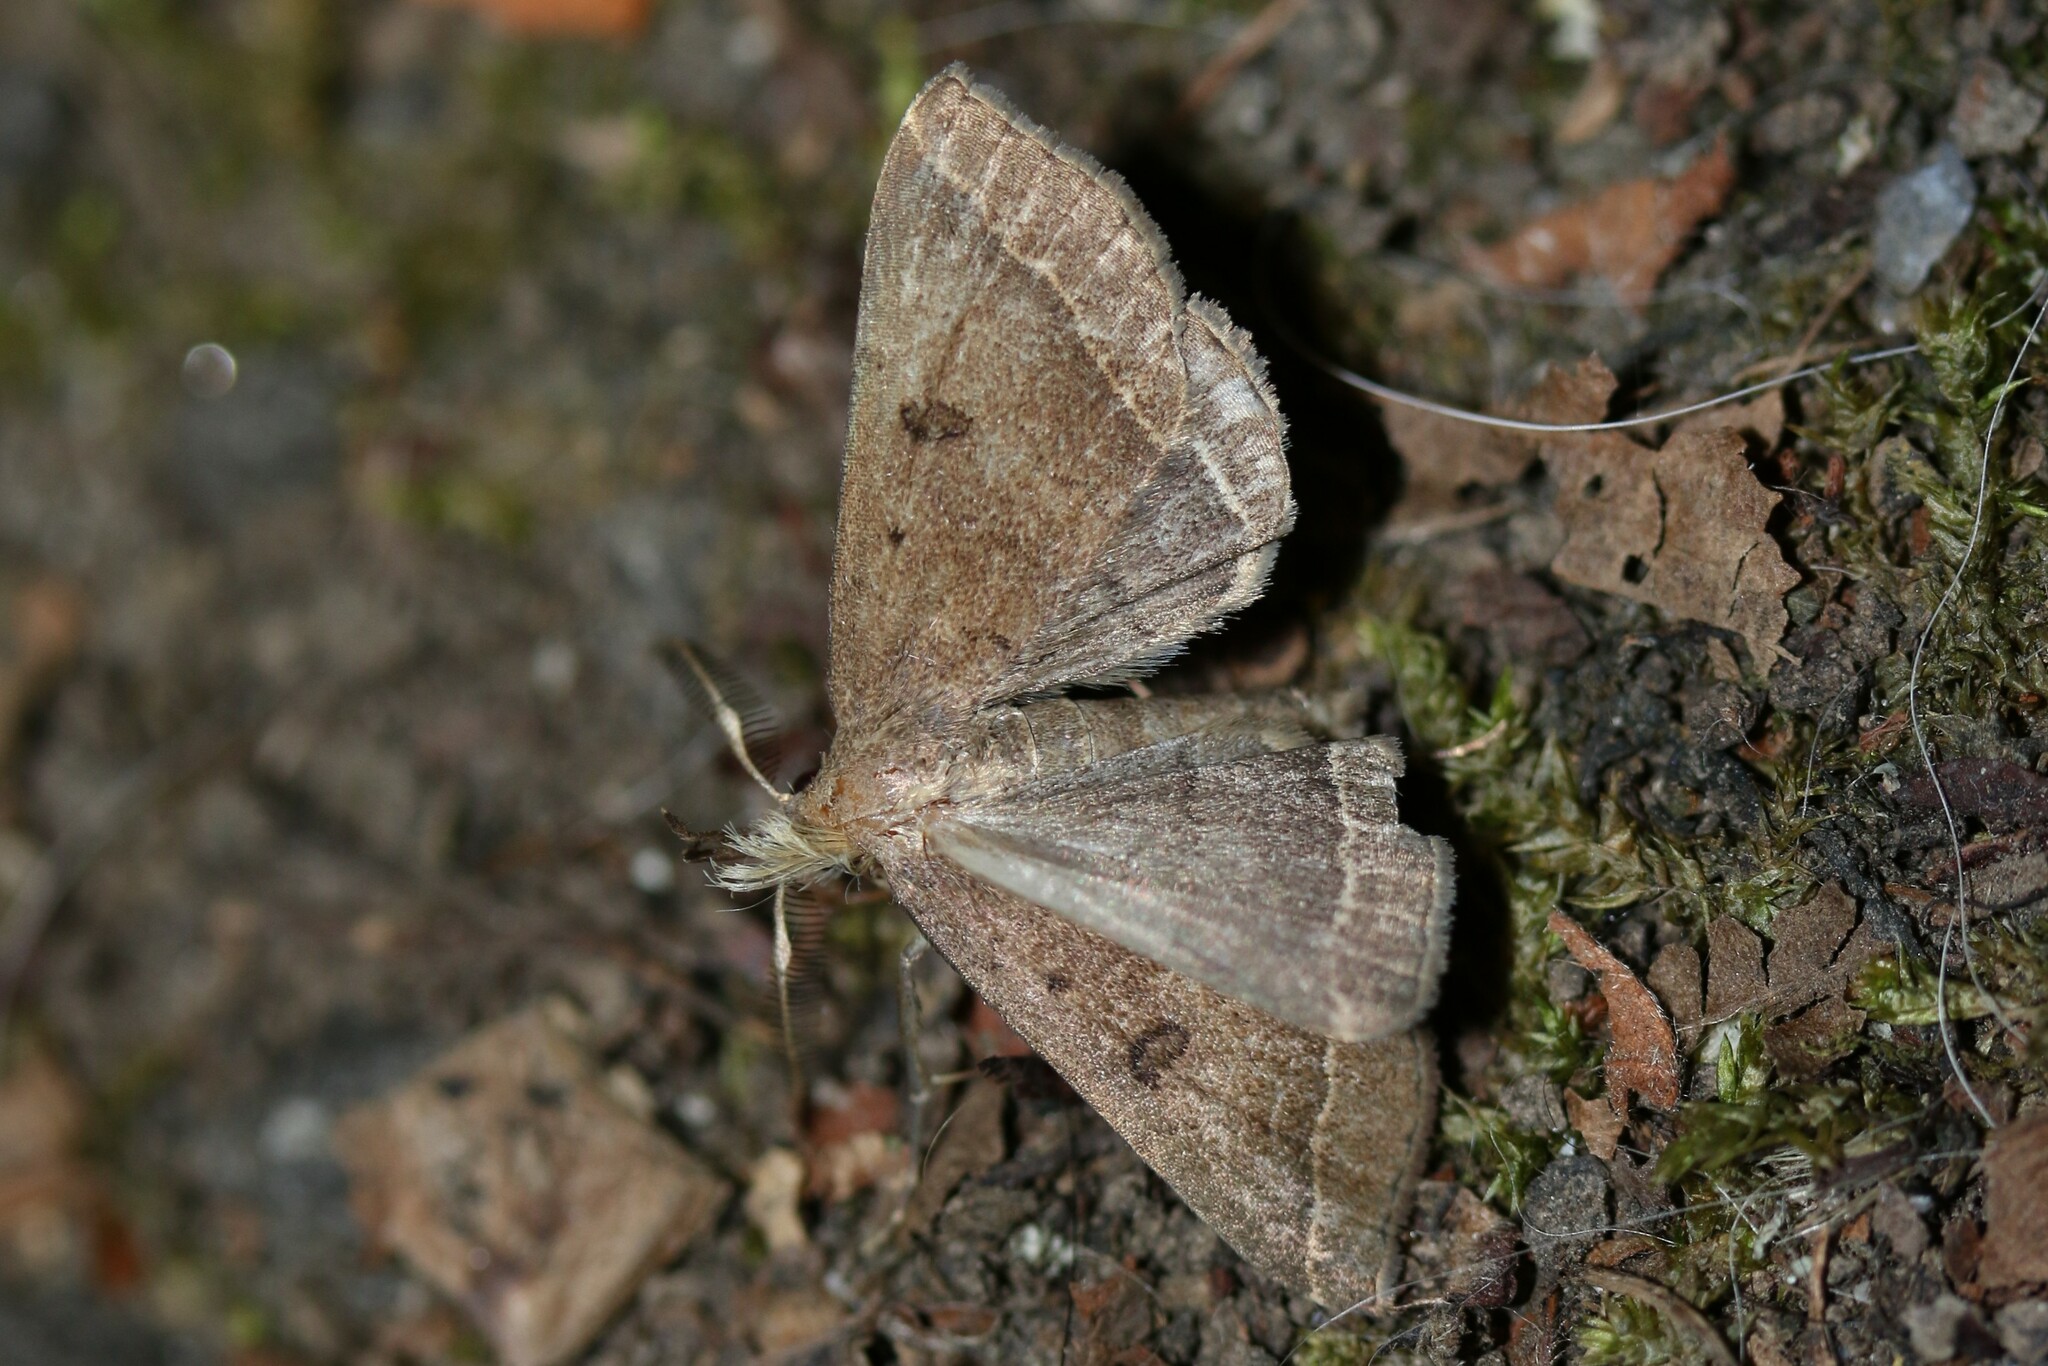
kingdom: Animalia
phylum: Arthropoda
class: Insecta
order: Lepidoptera
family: Erebidae
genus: Pechipogo
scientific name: Pechipogo plumigeralis
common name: Plumed fan-foot
